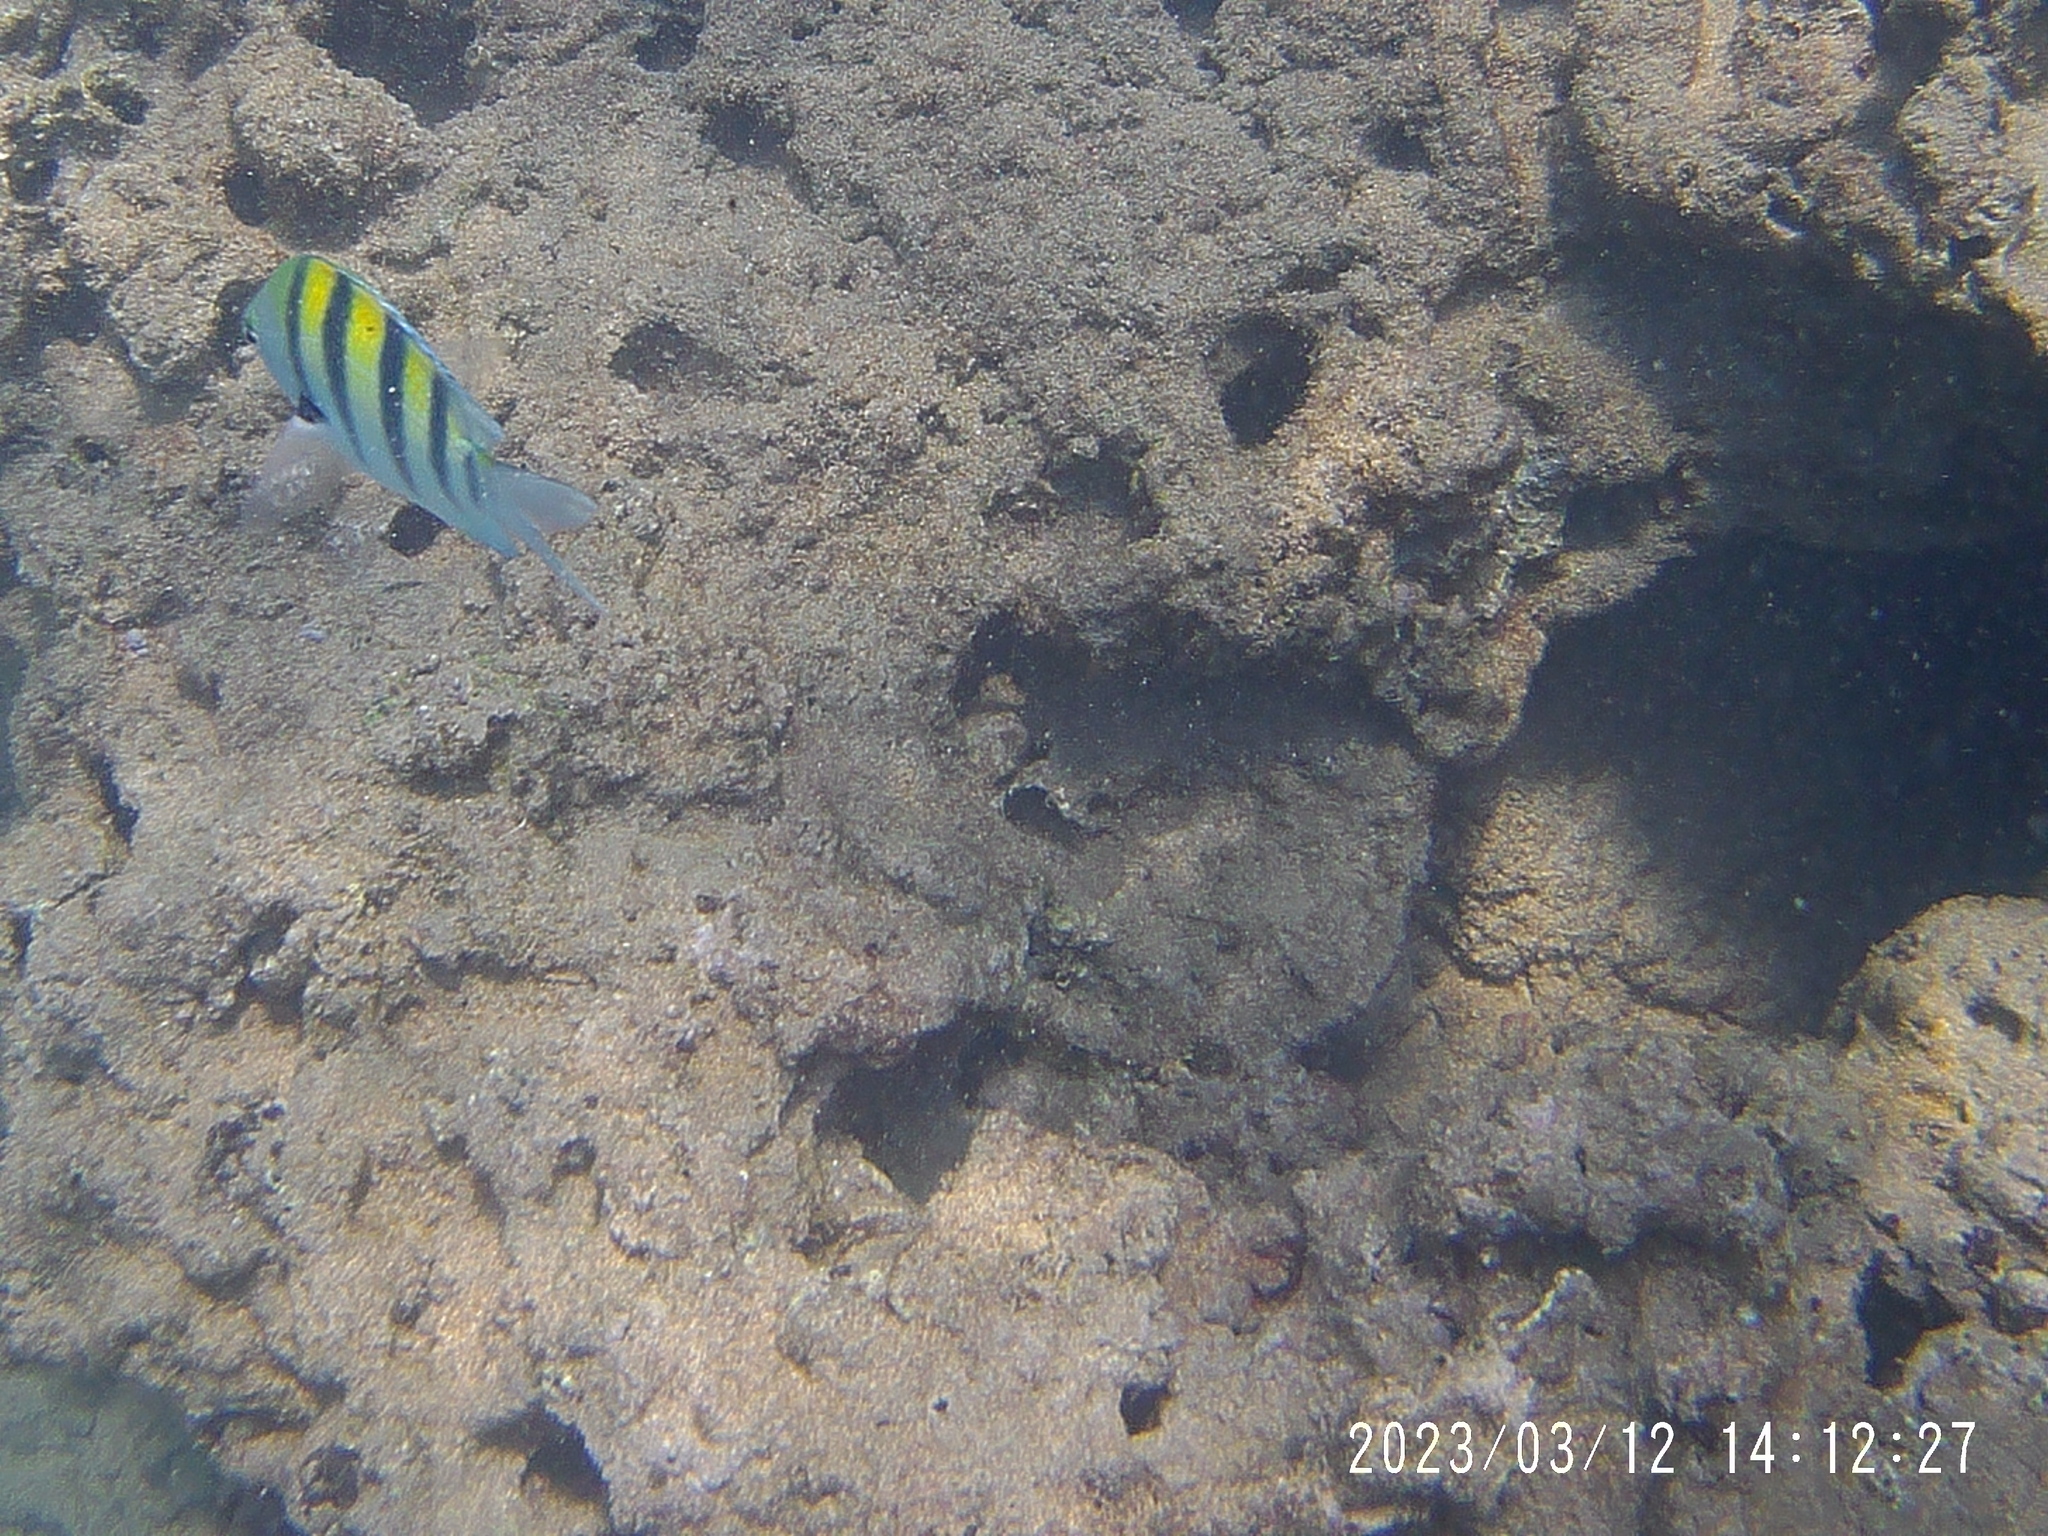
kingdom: Animalia
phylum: Chordata
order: Perciformes
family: Pomacentridae
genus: Abudefduf
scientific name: Abudefduf vaigiensis
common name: Indo-pacific sergeant
